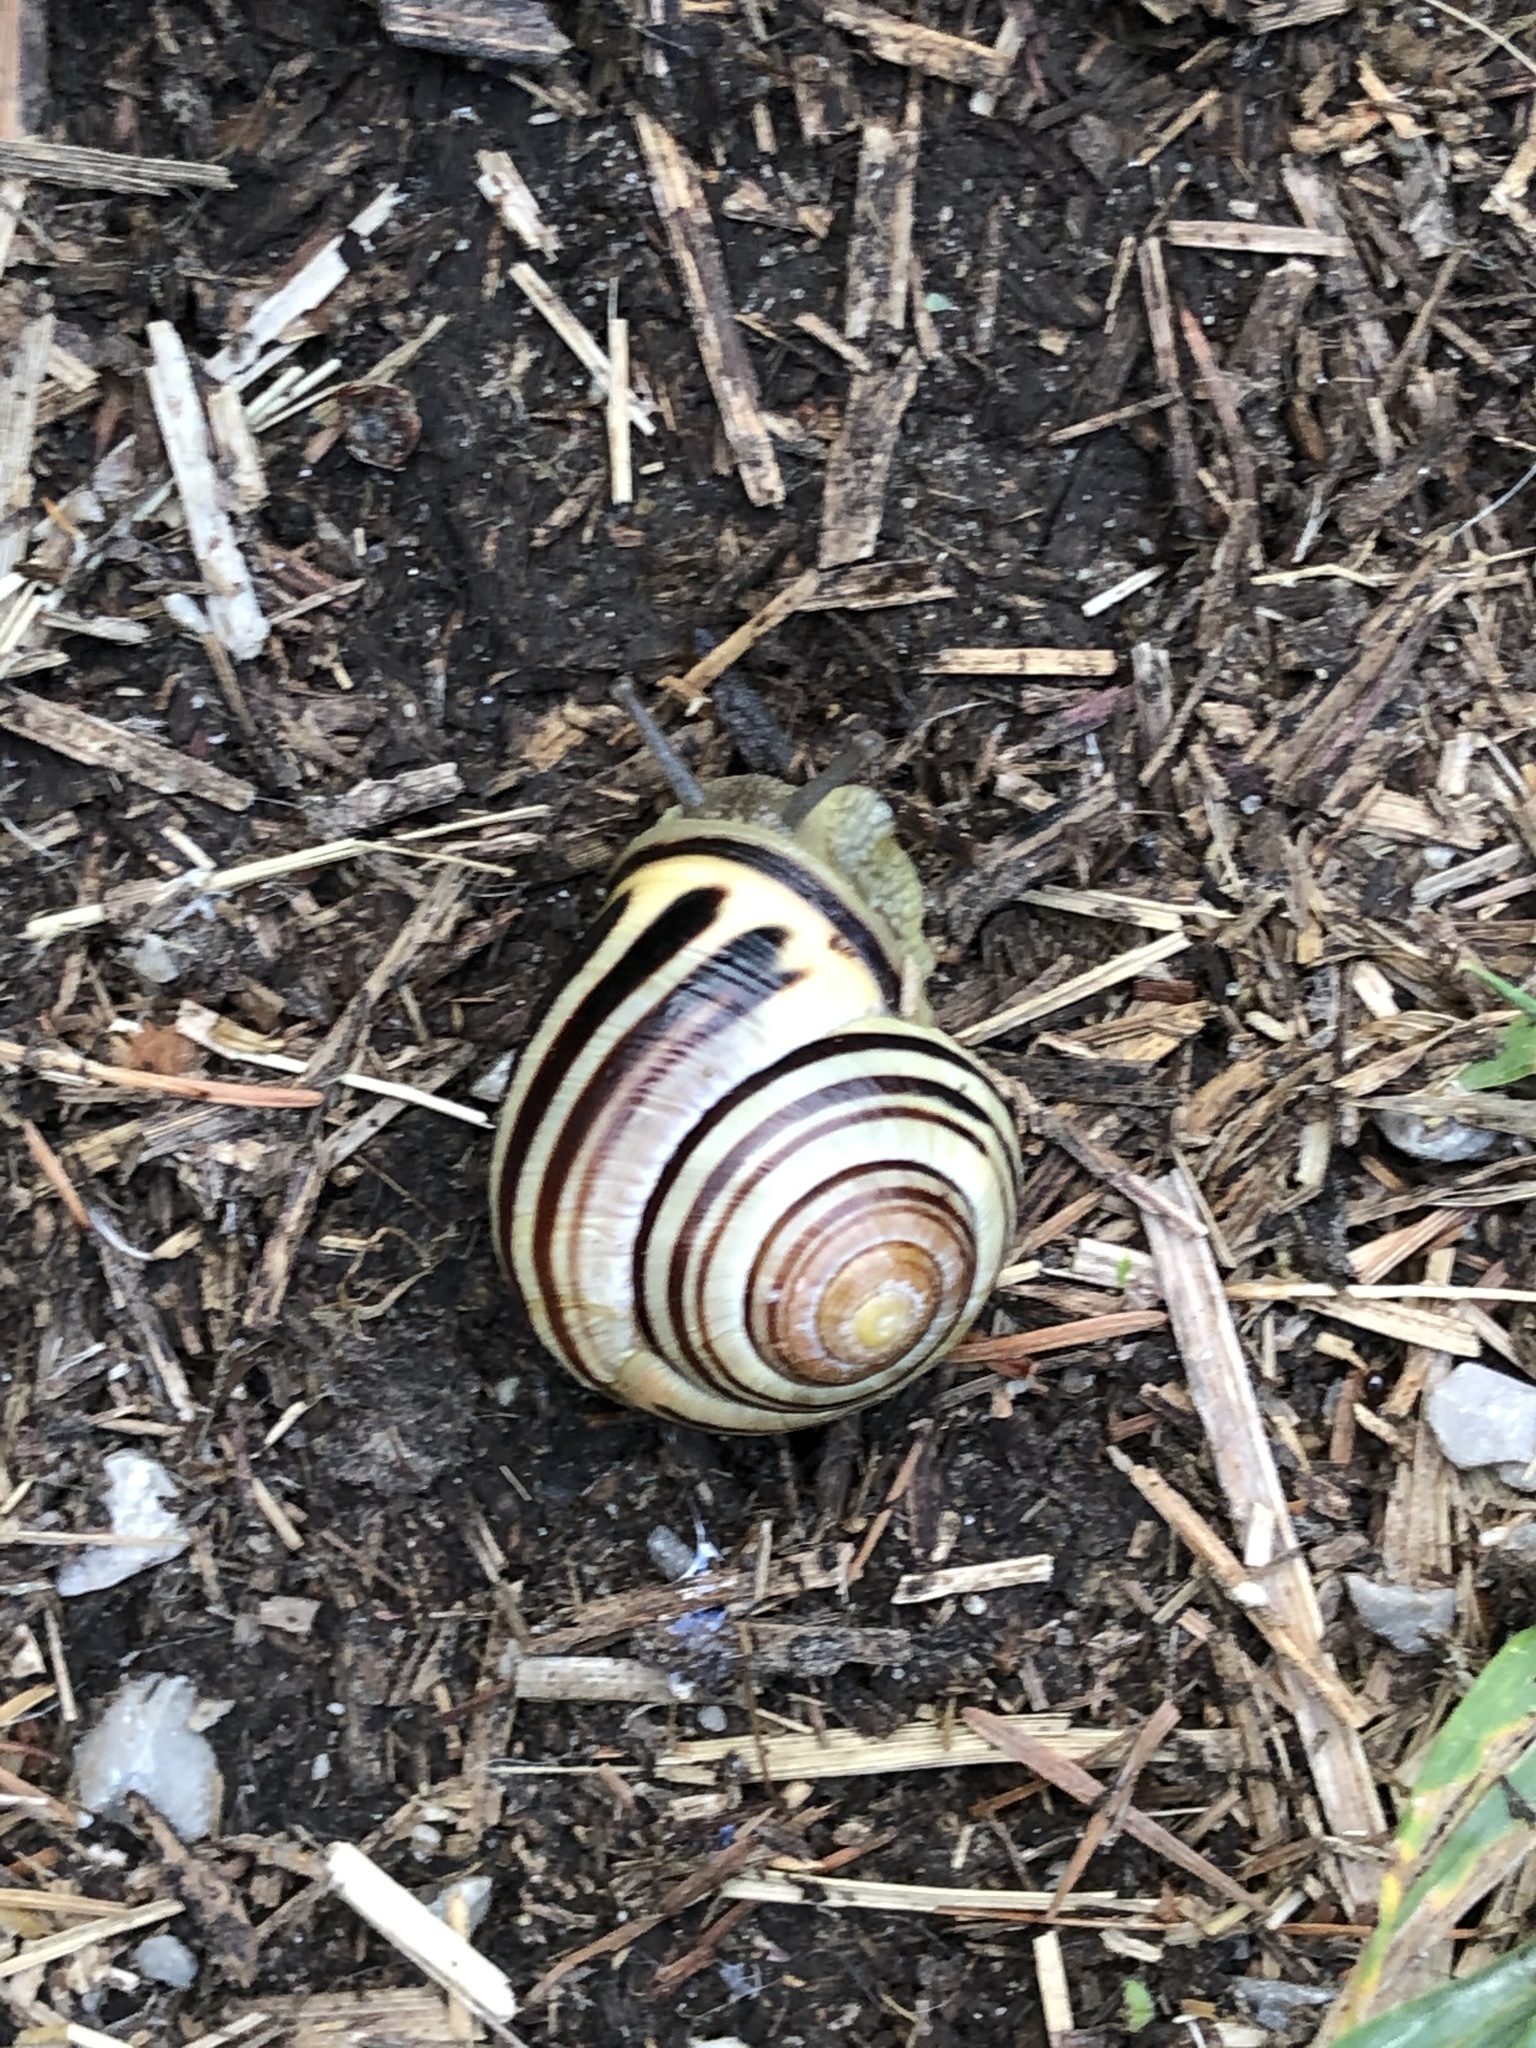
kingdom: Animalia
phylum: Mollusca
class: Gastropoda
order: Stylommatophora
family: Helicidae
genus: Cepaea
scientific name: Cepaea nemoralis
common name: Grovesnail
